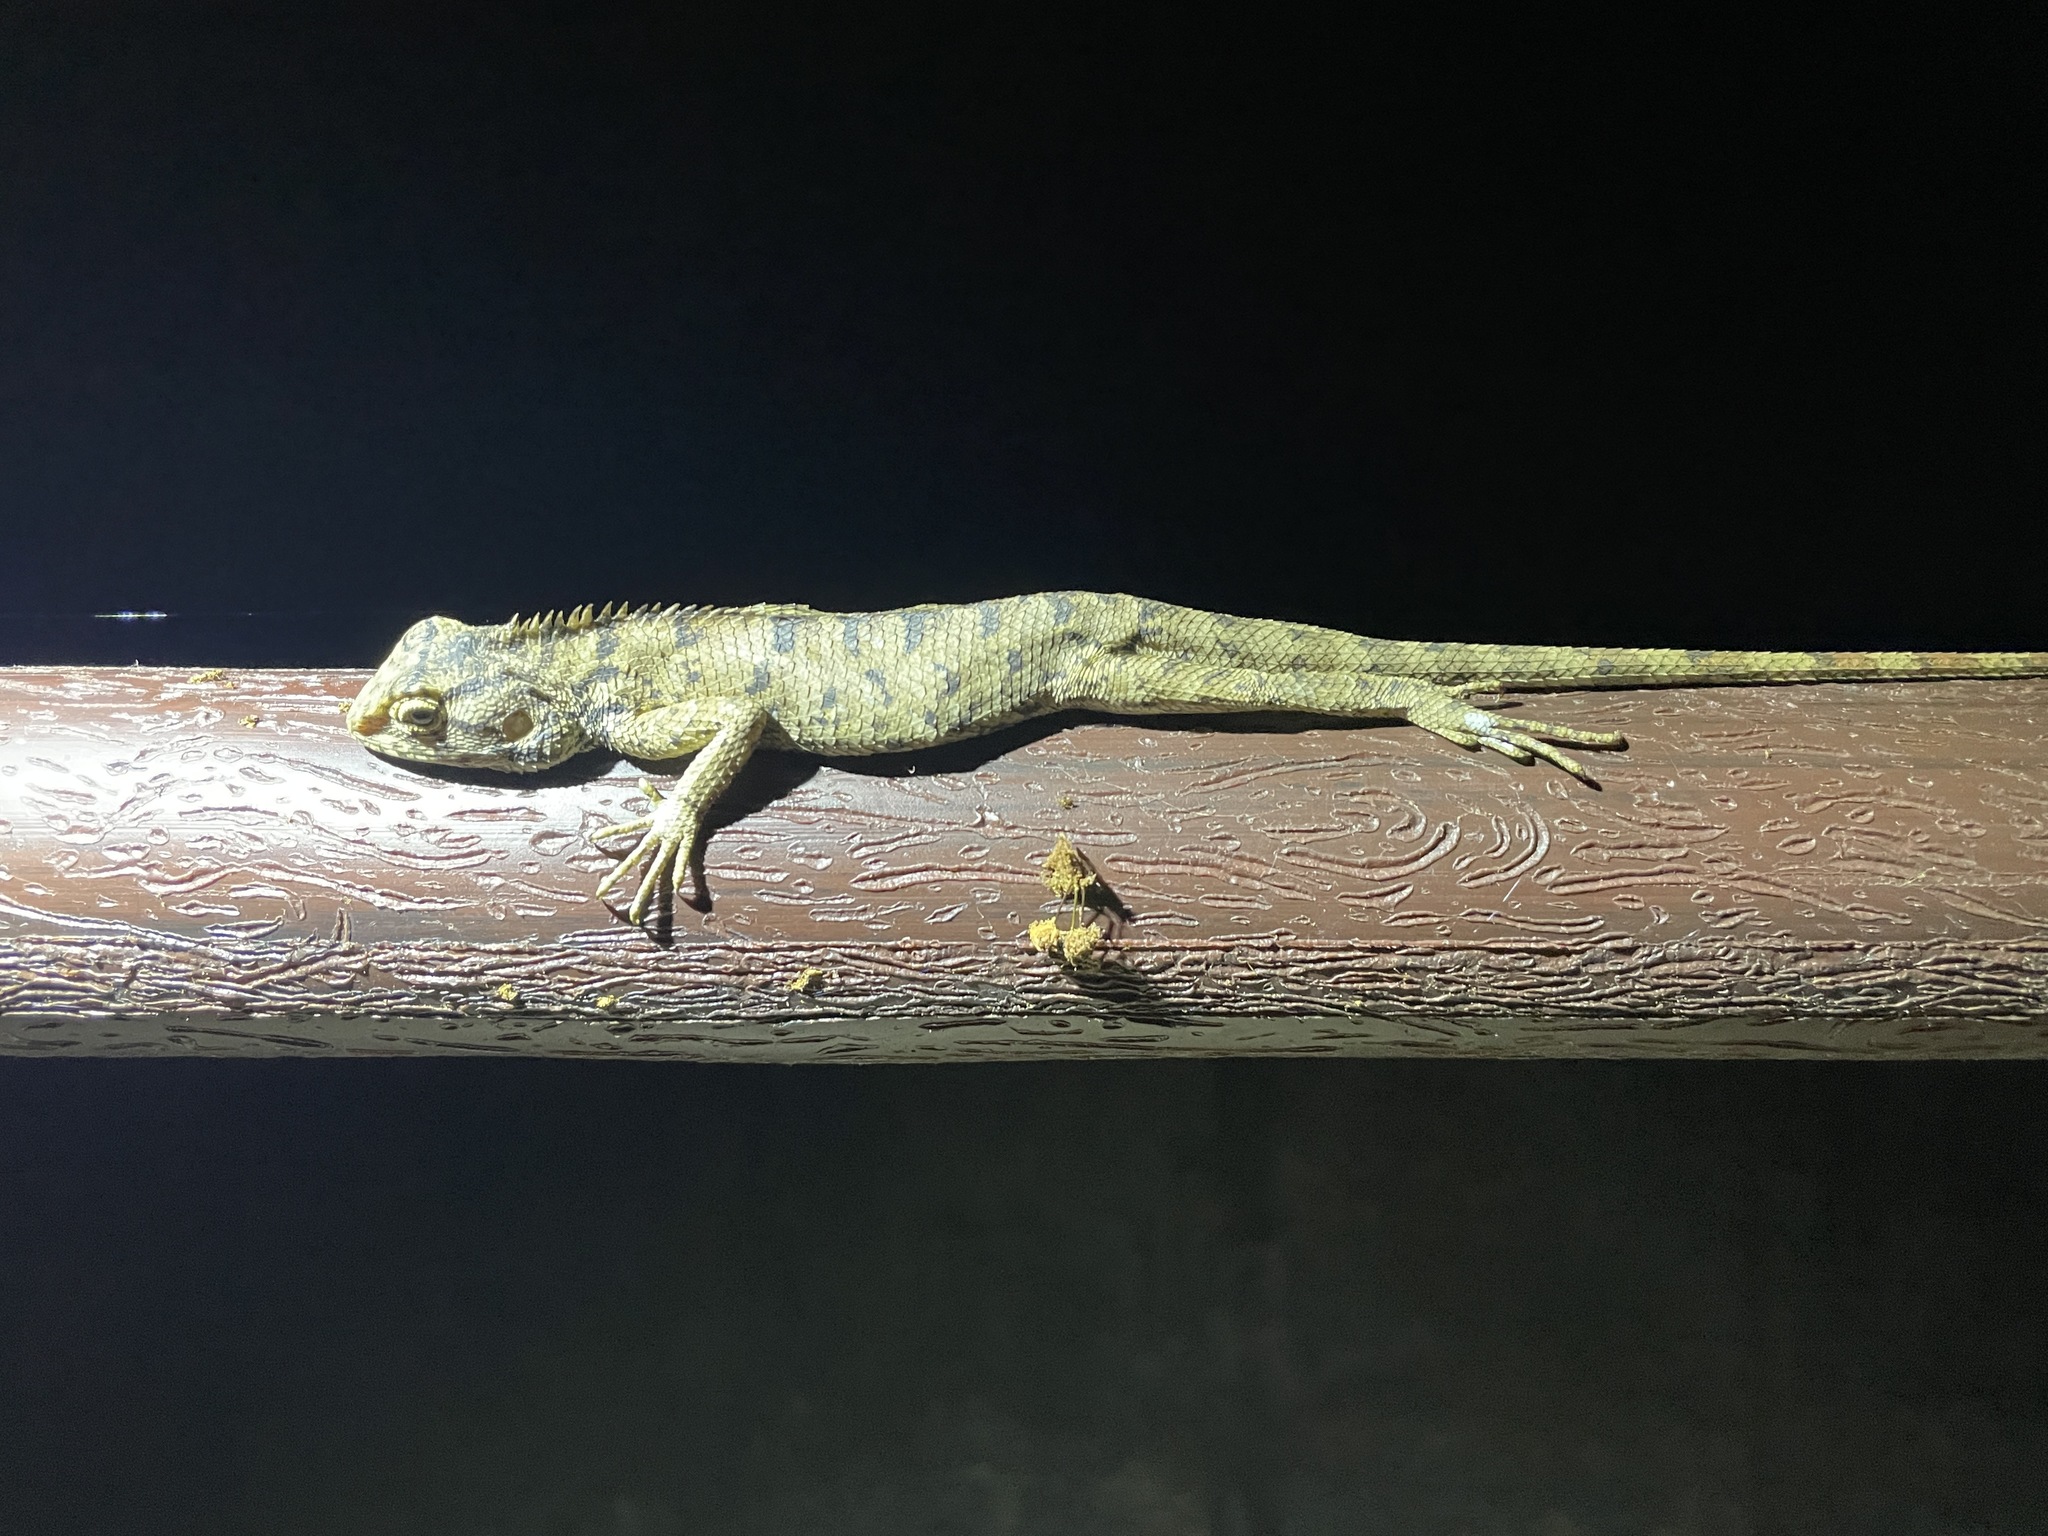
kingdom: Animalia
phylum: Chordata
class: Squamata
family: Agamidae
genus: Calotes
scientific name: Calotes versicolor
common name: Oriental garden lizard
